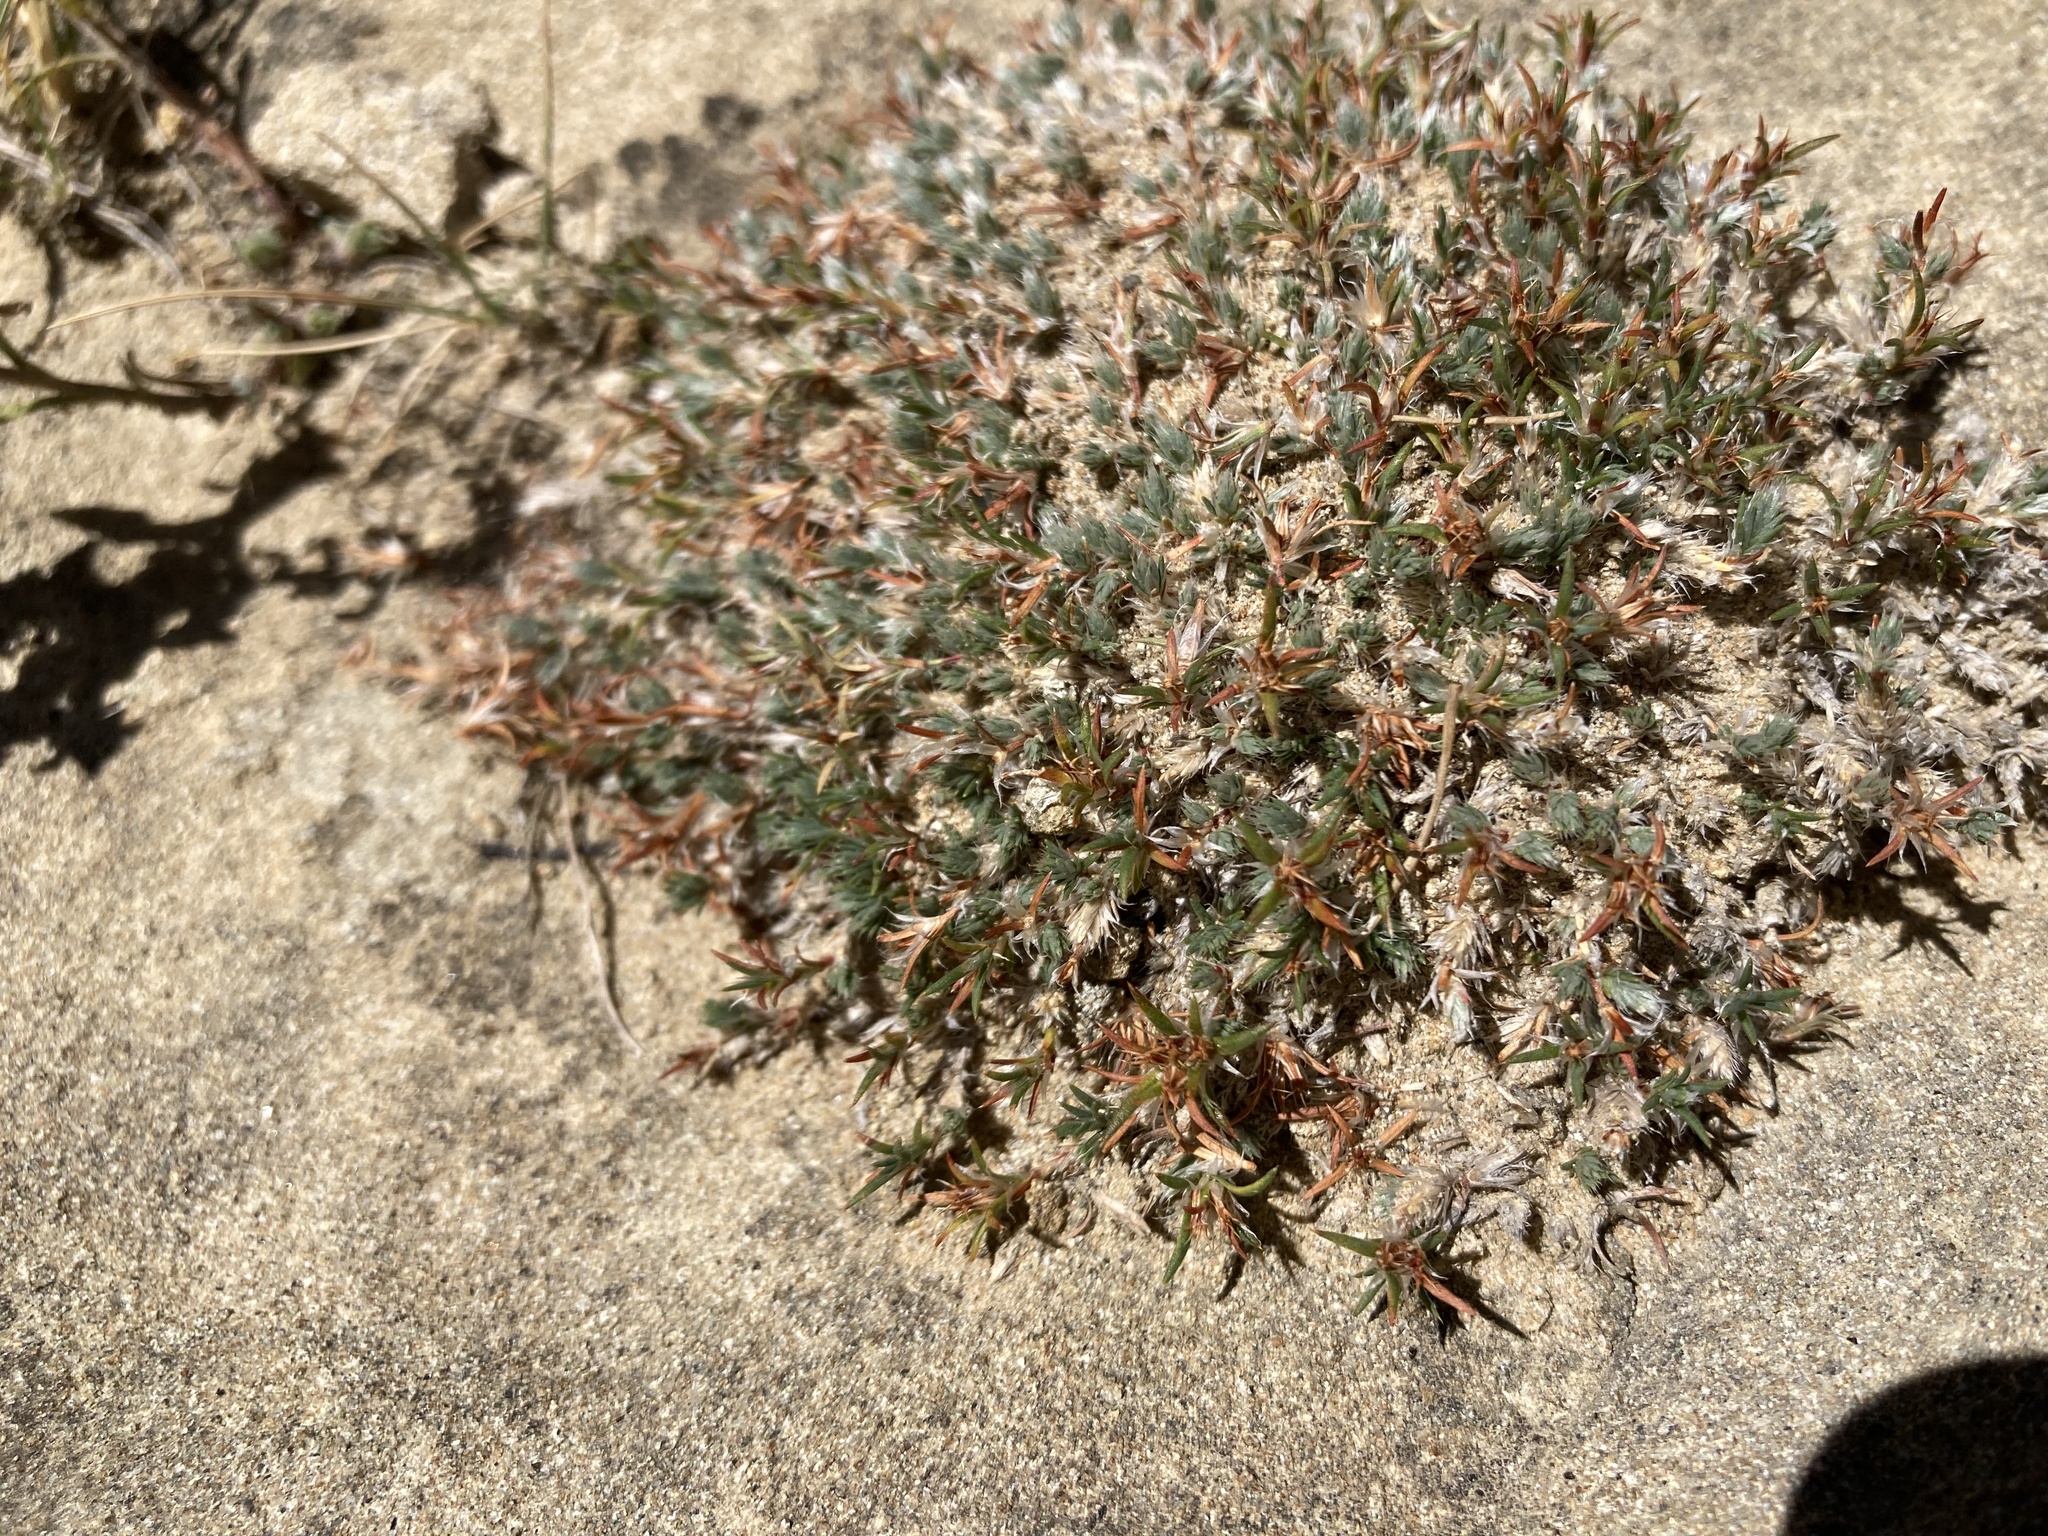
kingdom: Plantae
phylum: Tracheophyta
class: Magnoliopsida
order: Caryophyllales
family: Caryophyllaceae
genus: Paronychia
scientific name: Paronychia sessiliflora
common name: Creeping nailwort
